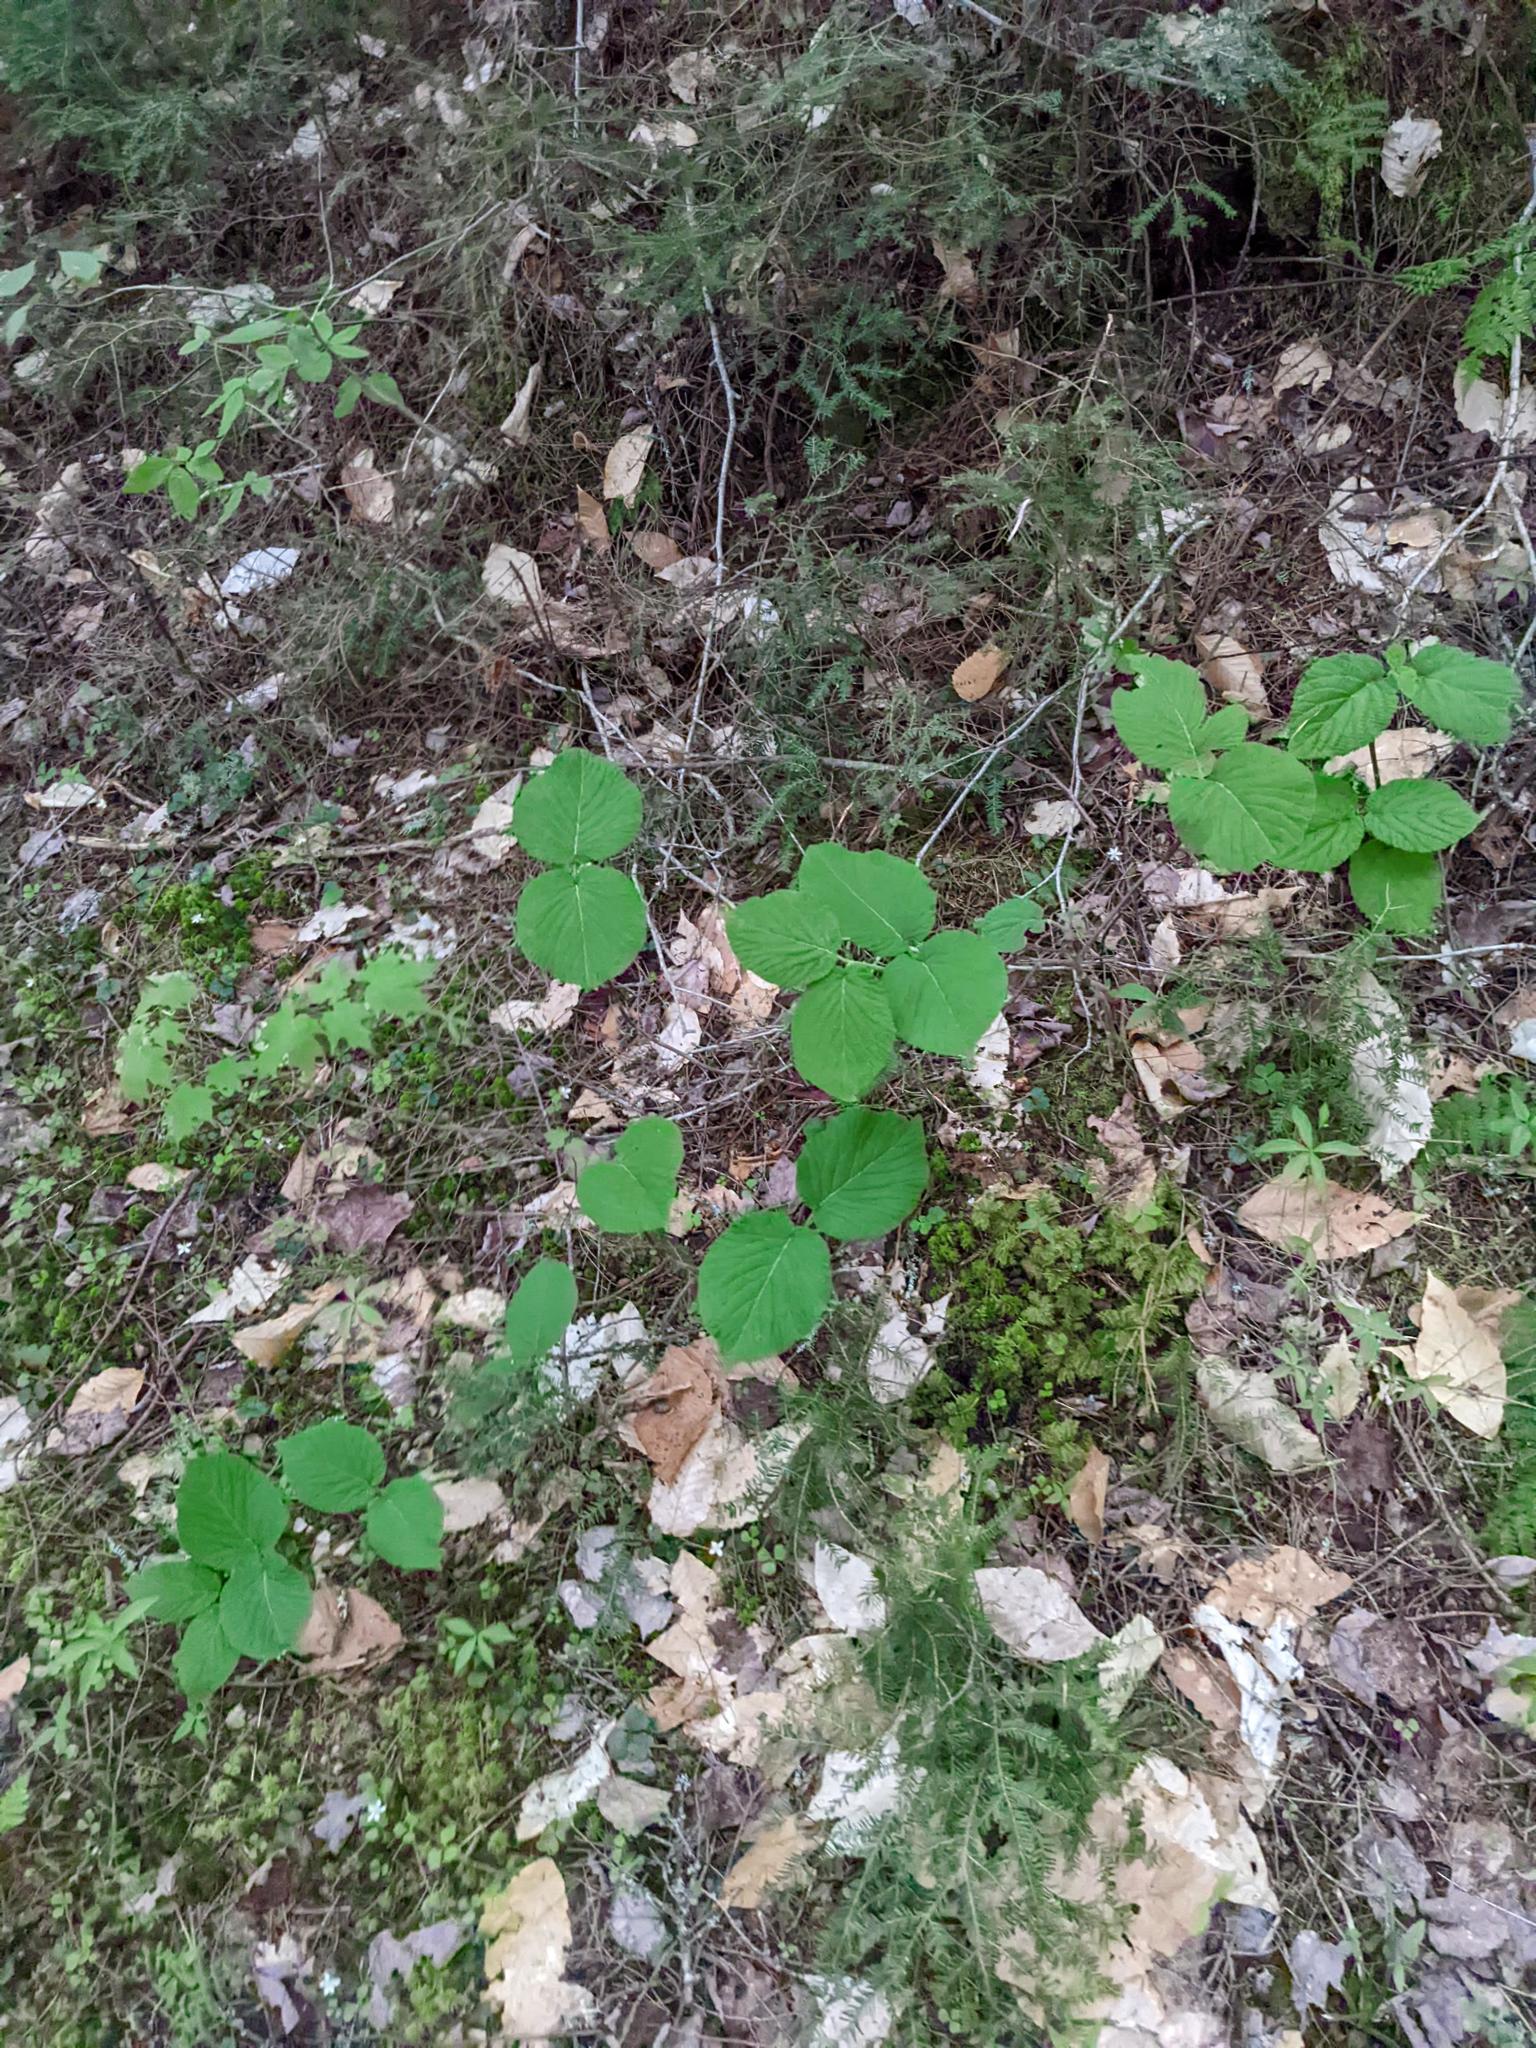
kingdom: Plantae
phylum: Tracheophyta
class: Magnoliopsida
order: Dipsacales
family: Viburnaceae
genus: Viburnum
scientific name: Viburnum lantanoides
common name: Hobblebush
